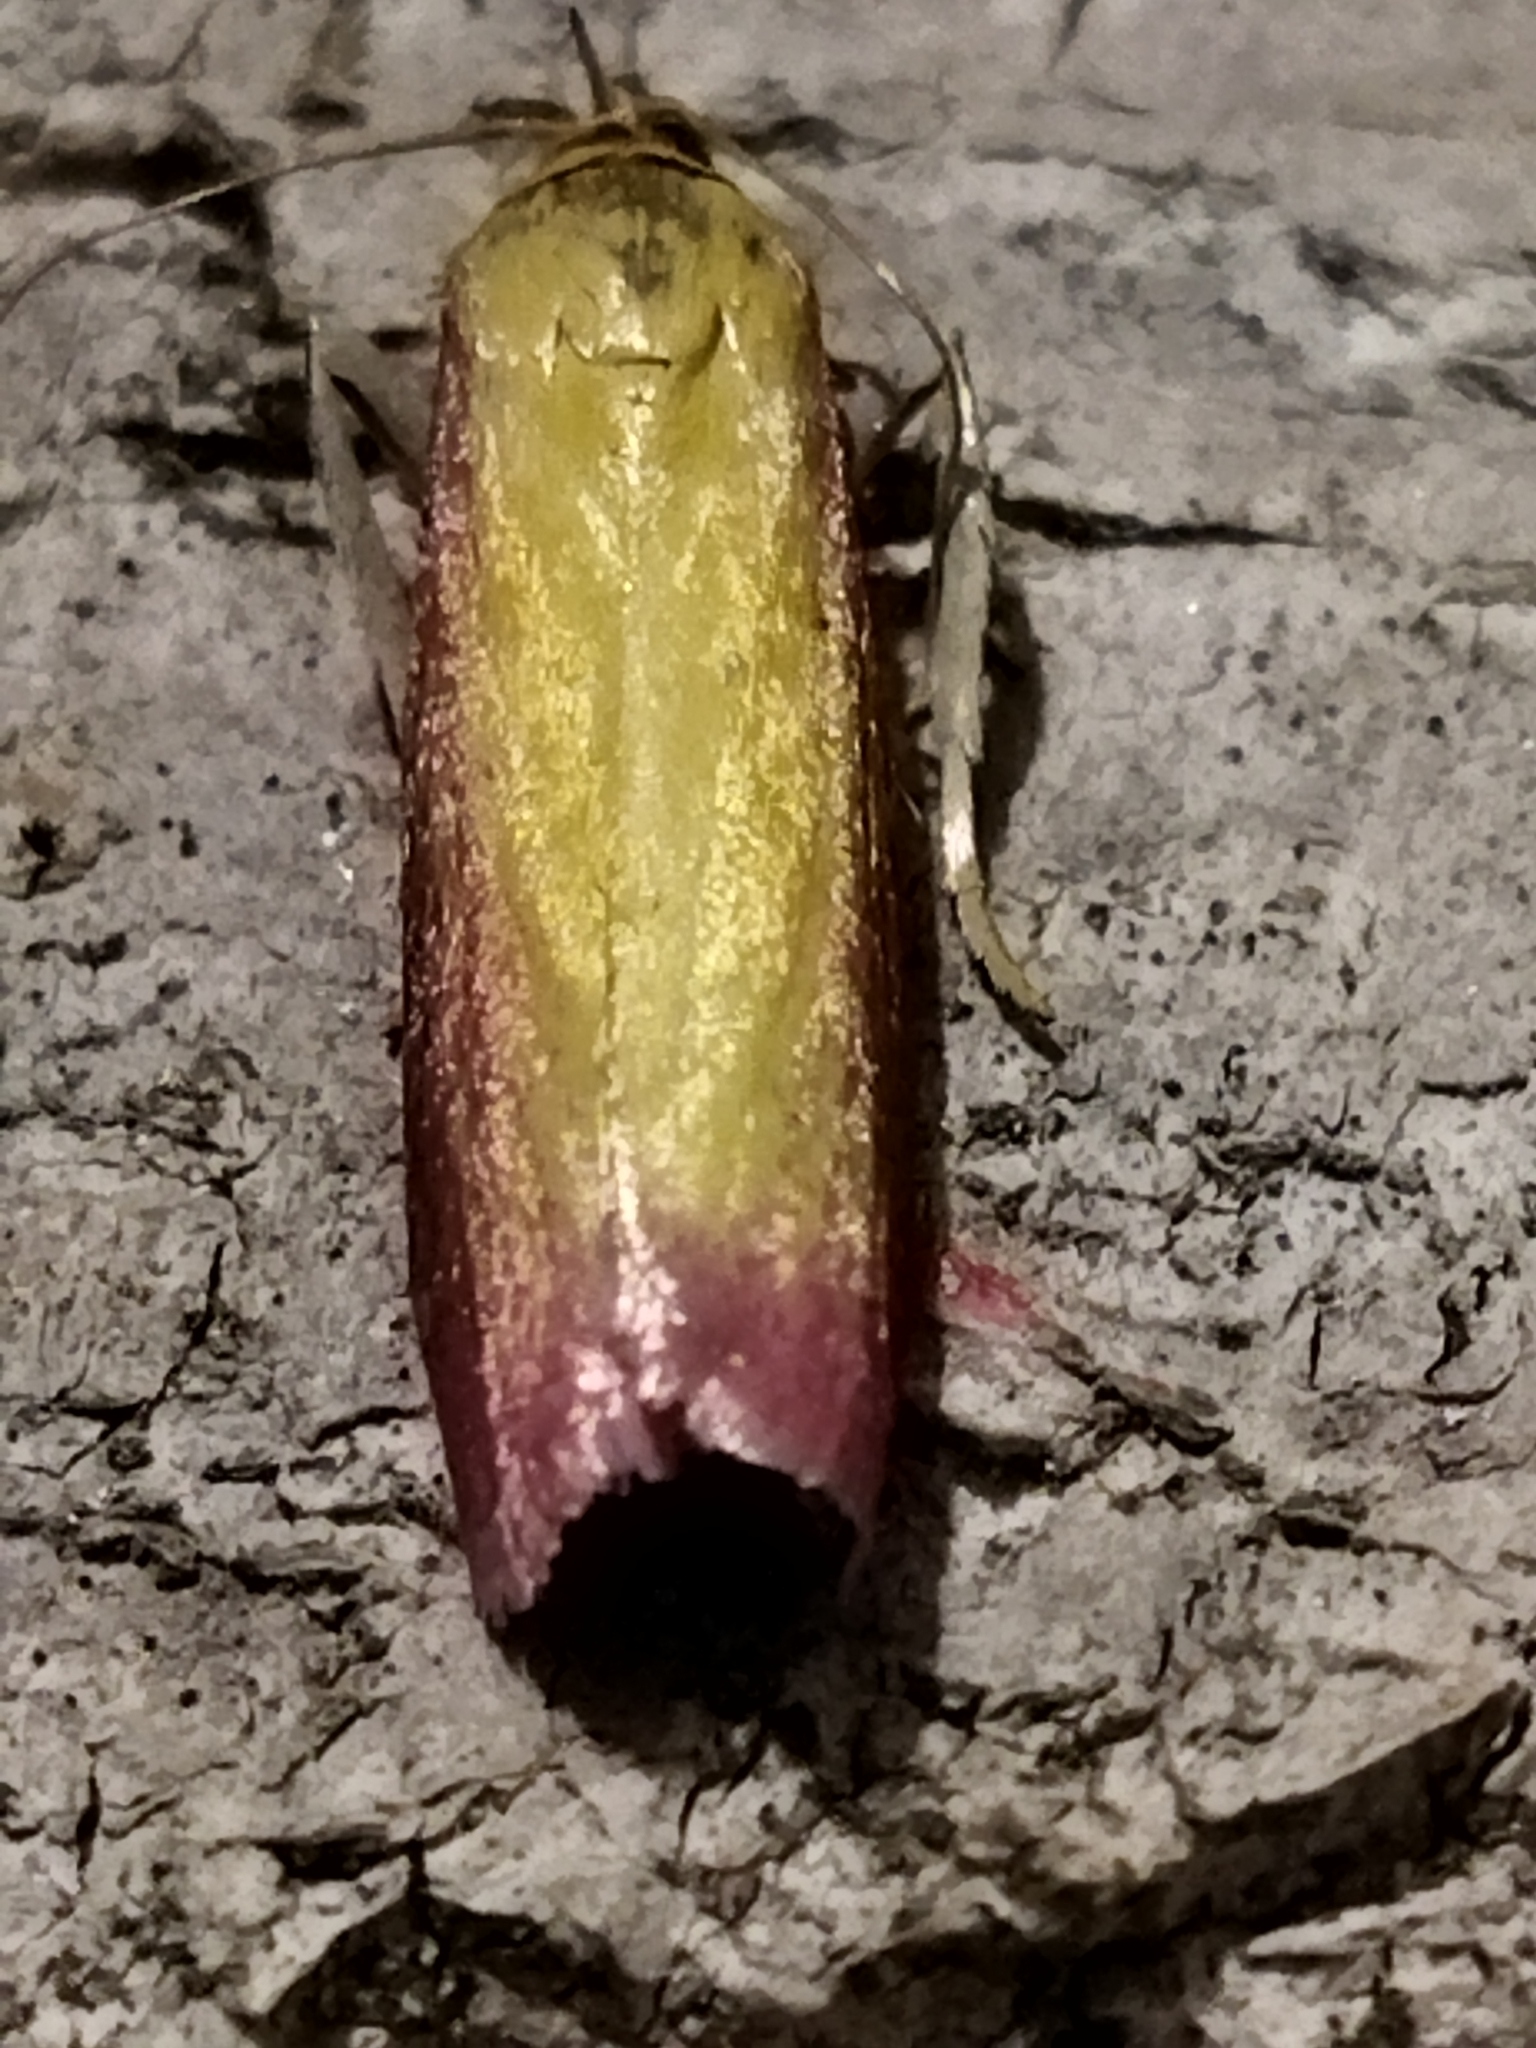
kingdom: Animalia
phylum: Arthropoda
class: Insecta
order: Lepidoptera
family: Pyralidae
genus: Oncocera
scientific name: Oncocera semirubella
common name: Rosy-striped knot-horn
